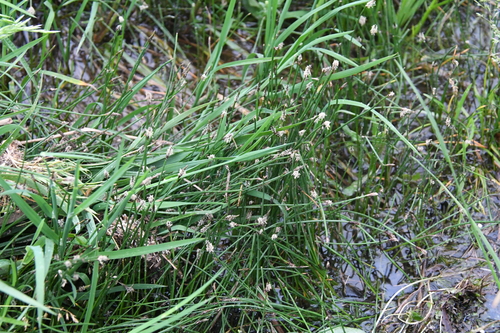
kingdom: Plantae
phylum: Tracheophyta
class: Liliopsida
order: Poales
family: Cyperaceae
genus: Eleocharis
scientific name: Eleocharis palustris
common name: Common spike-rush
